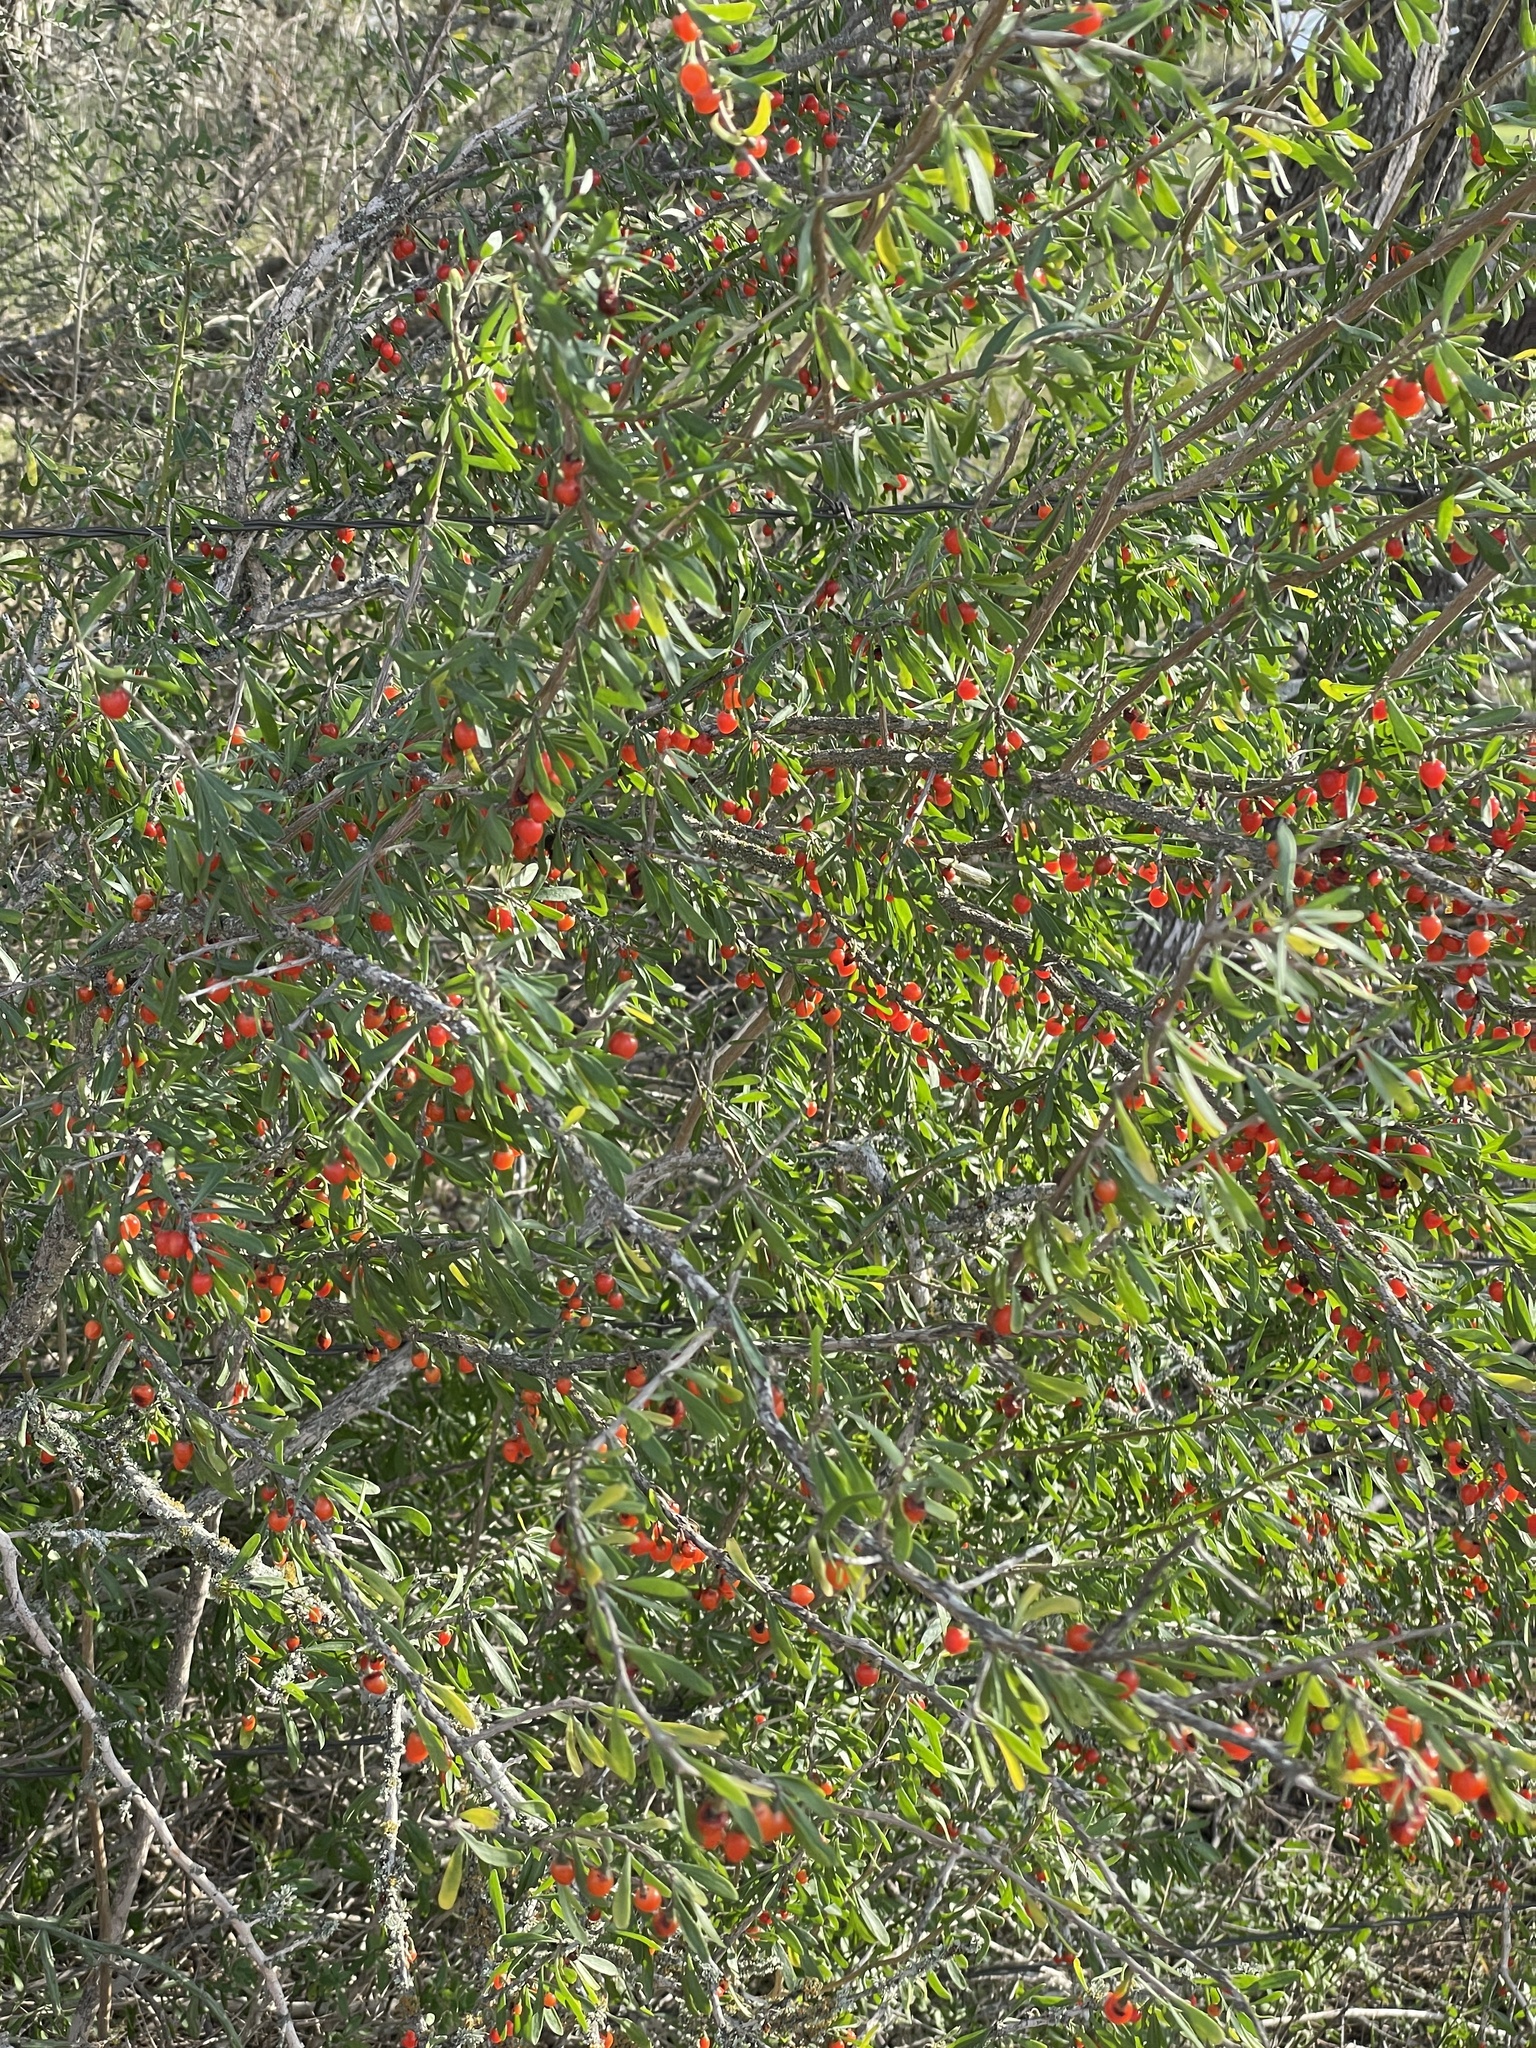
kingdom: Plantae
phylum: Tracheophyta
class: Magnoliopsida
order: Solanales
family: Solanaceae
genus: Lycium
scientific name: Lycium berlandieri
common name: Berlandier wolfberry
